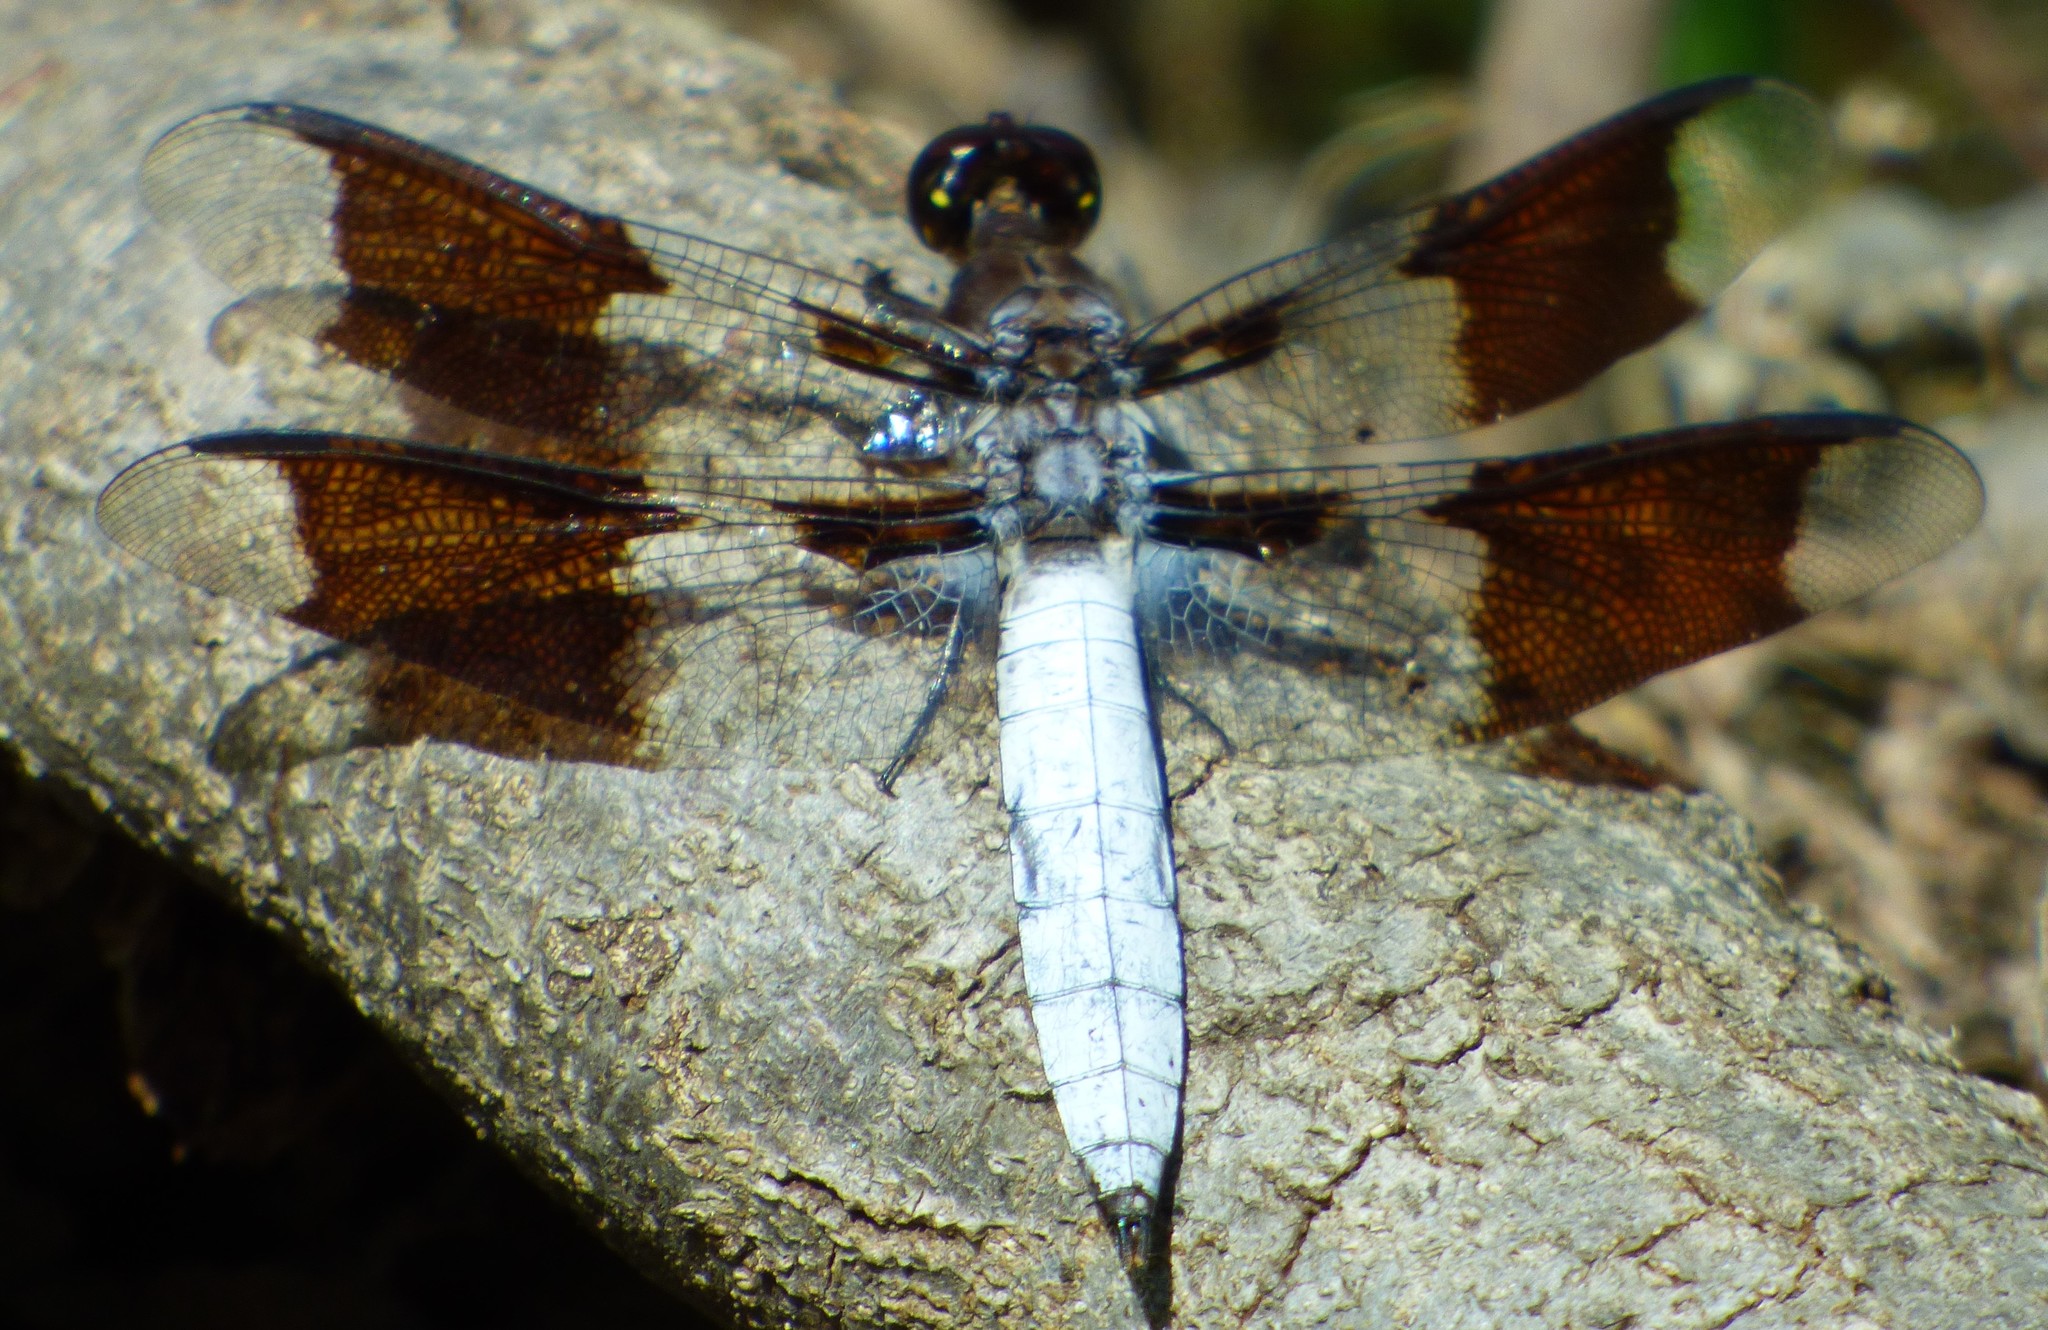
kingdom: Animalia
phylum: Arthropoda
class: Insecta
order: Odonata
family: Libellulidae
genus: Plathemis
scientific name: Plathemis lydia
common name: Common whitetail
